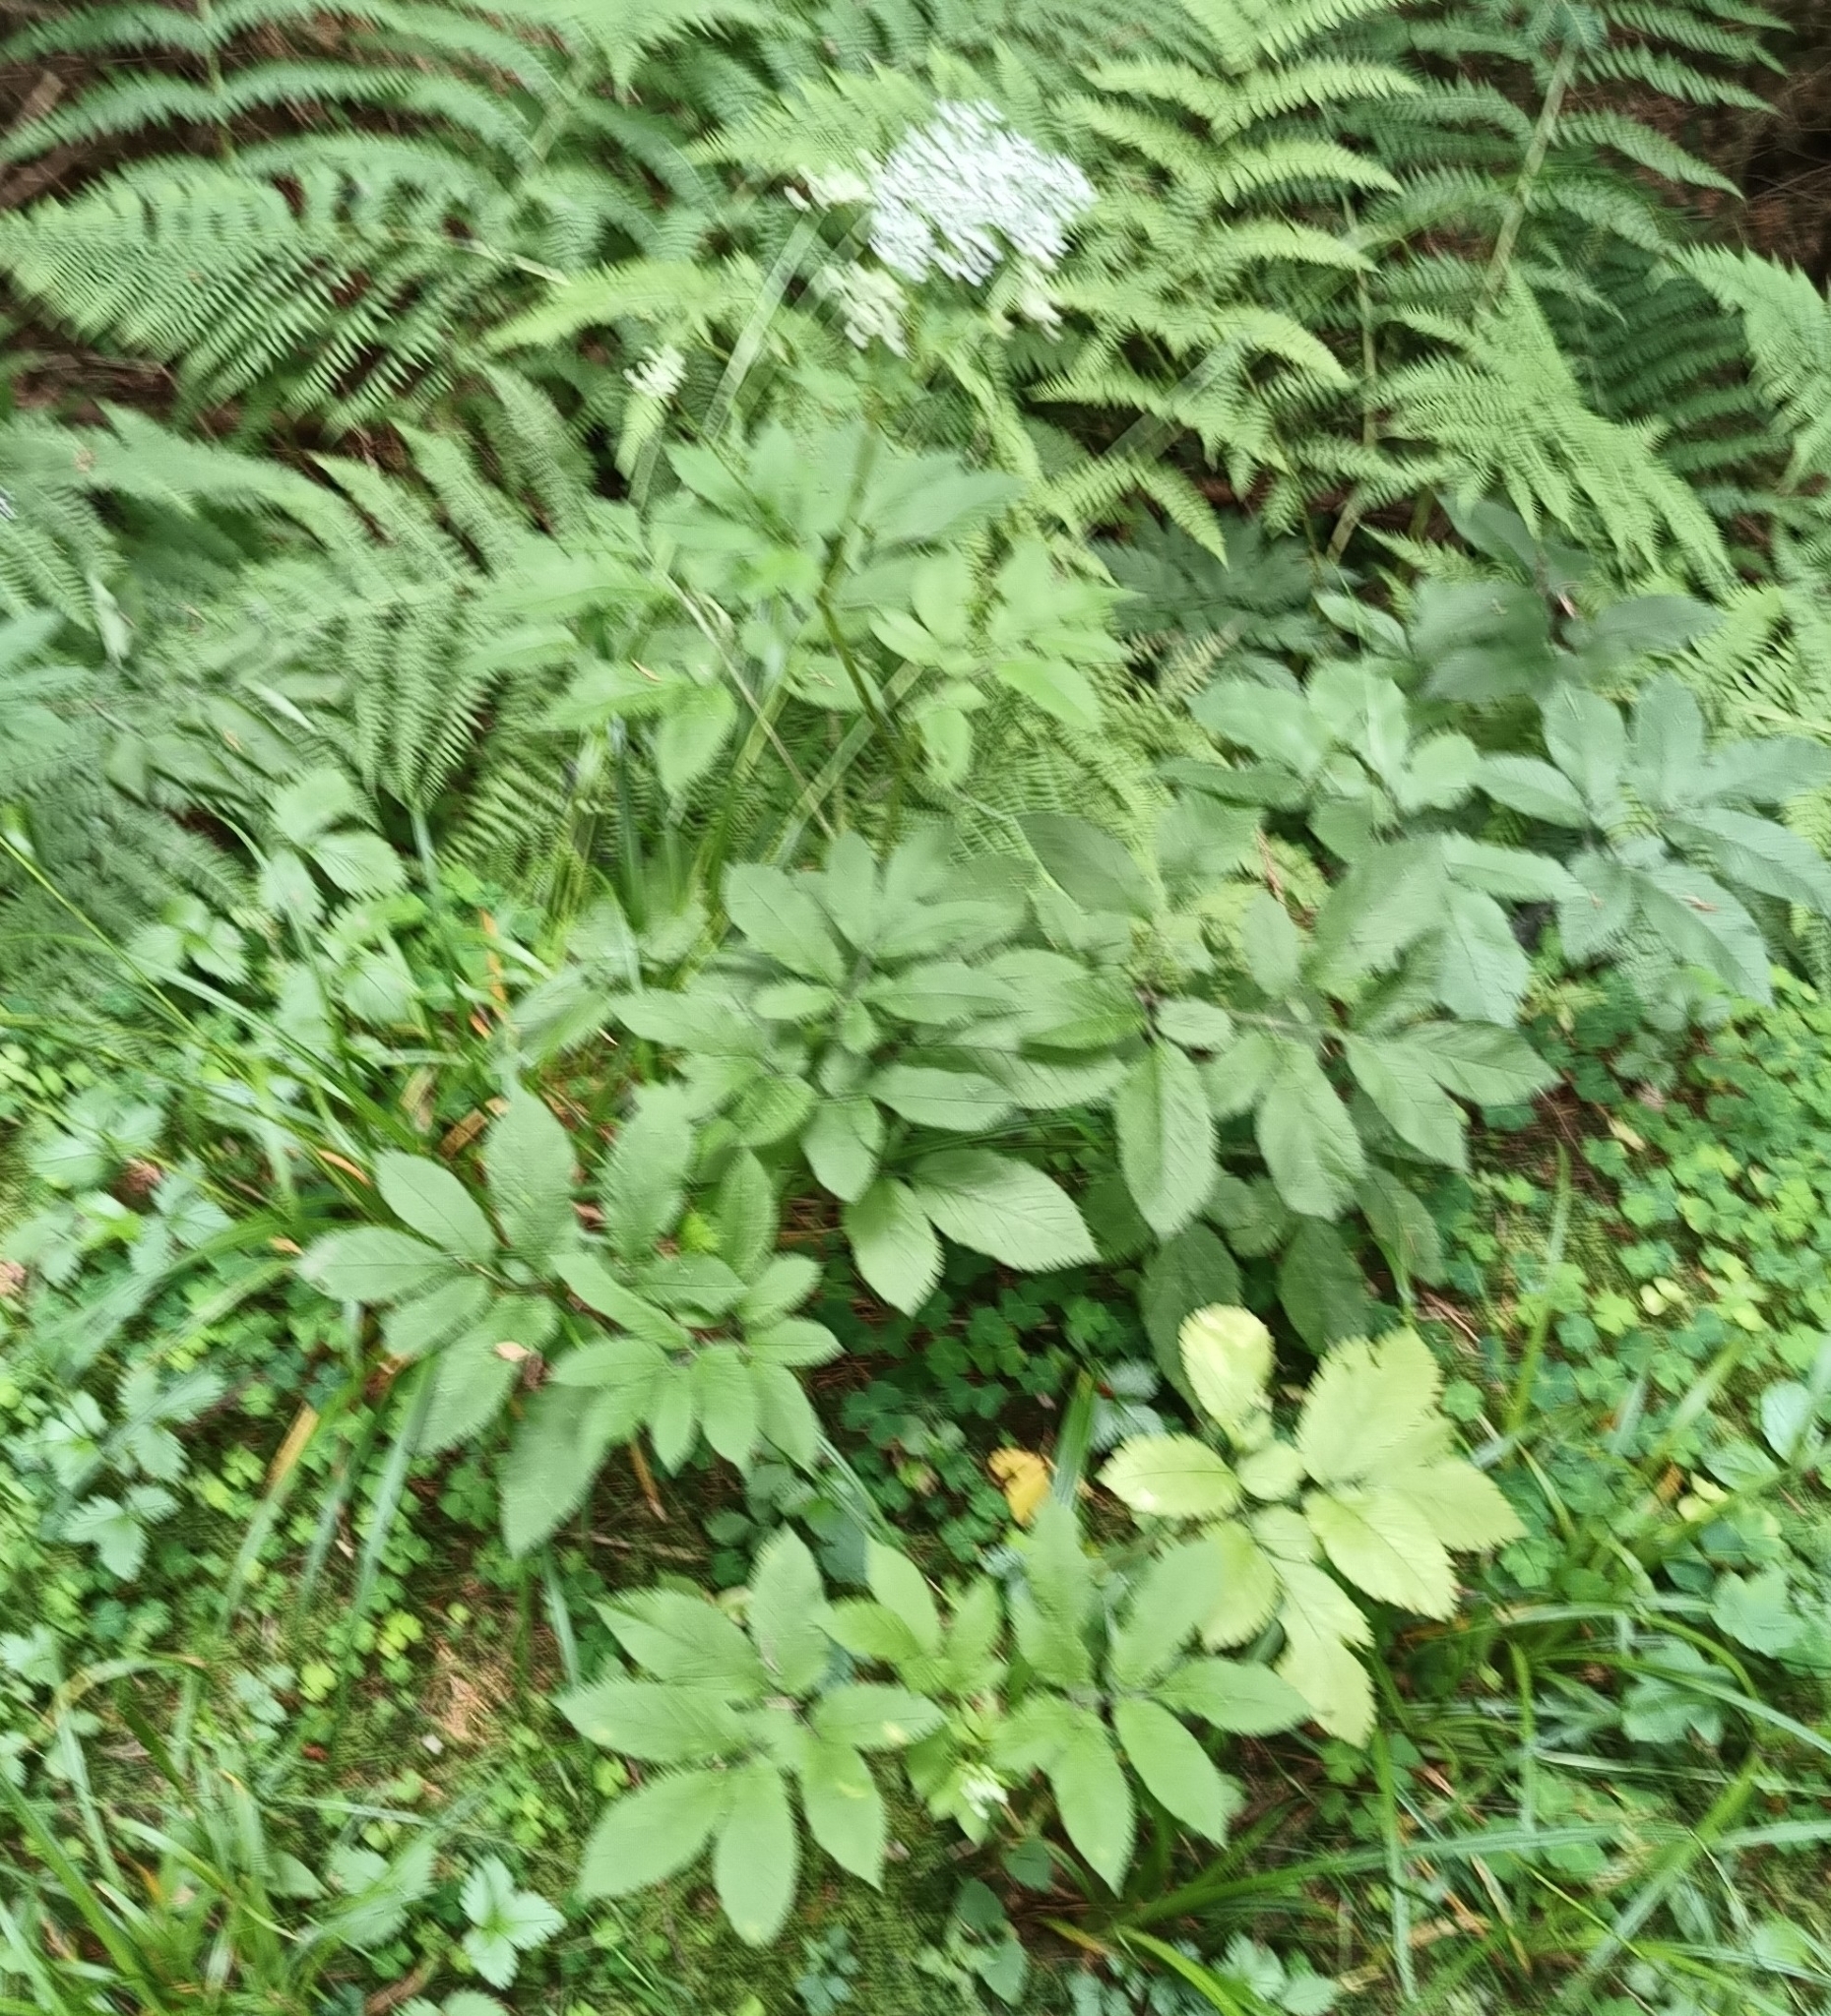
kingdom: Plantae
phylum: Tracheophyta
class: Magnoliopsida
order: Apiales
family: Apiaceae
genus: Chaerophyllum
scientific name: Chaerophyllum aromaticum
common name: Broadleaf chervil
